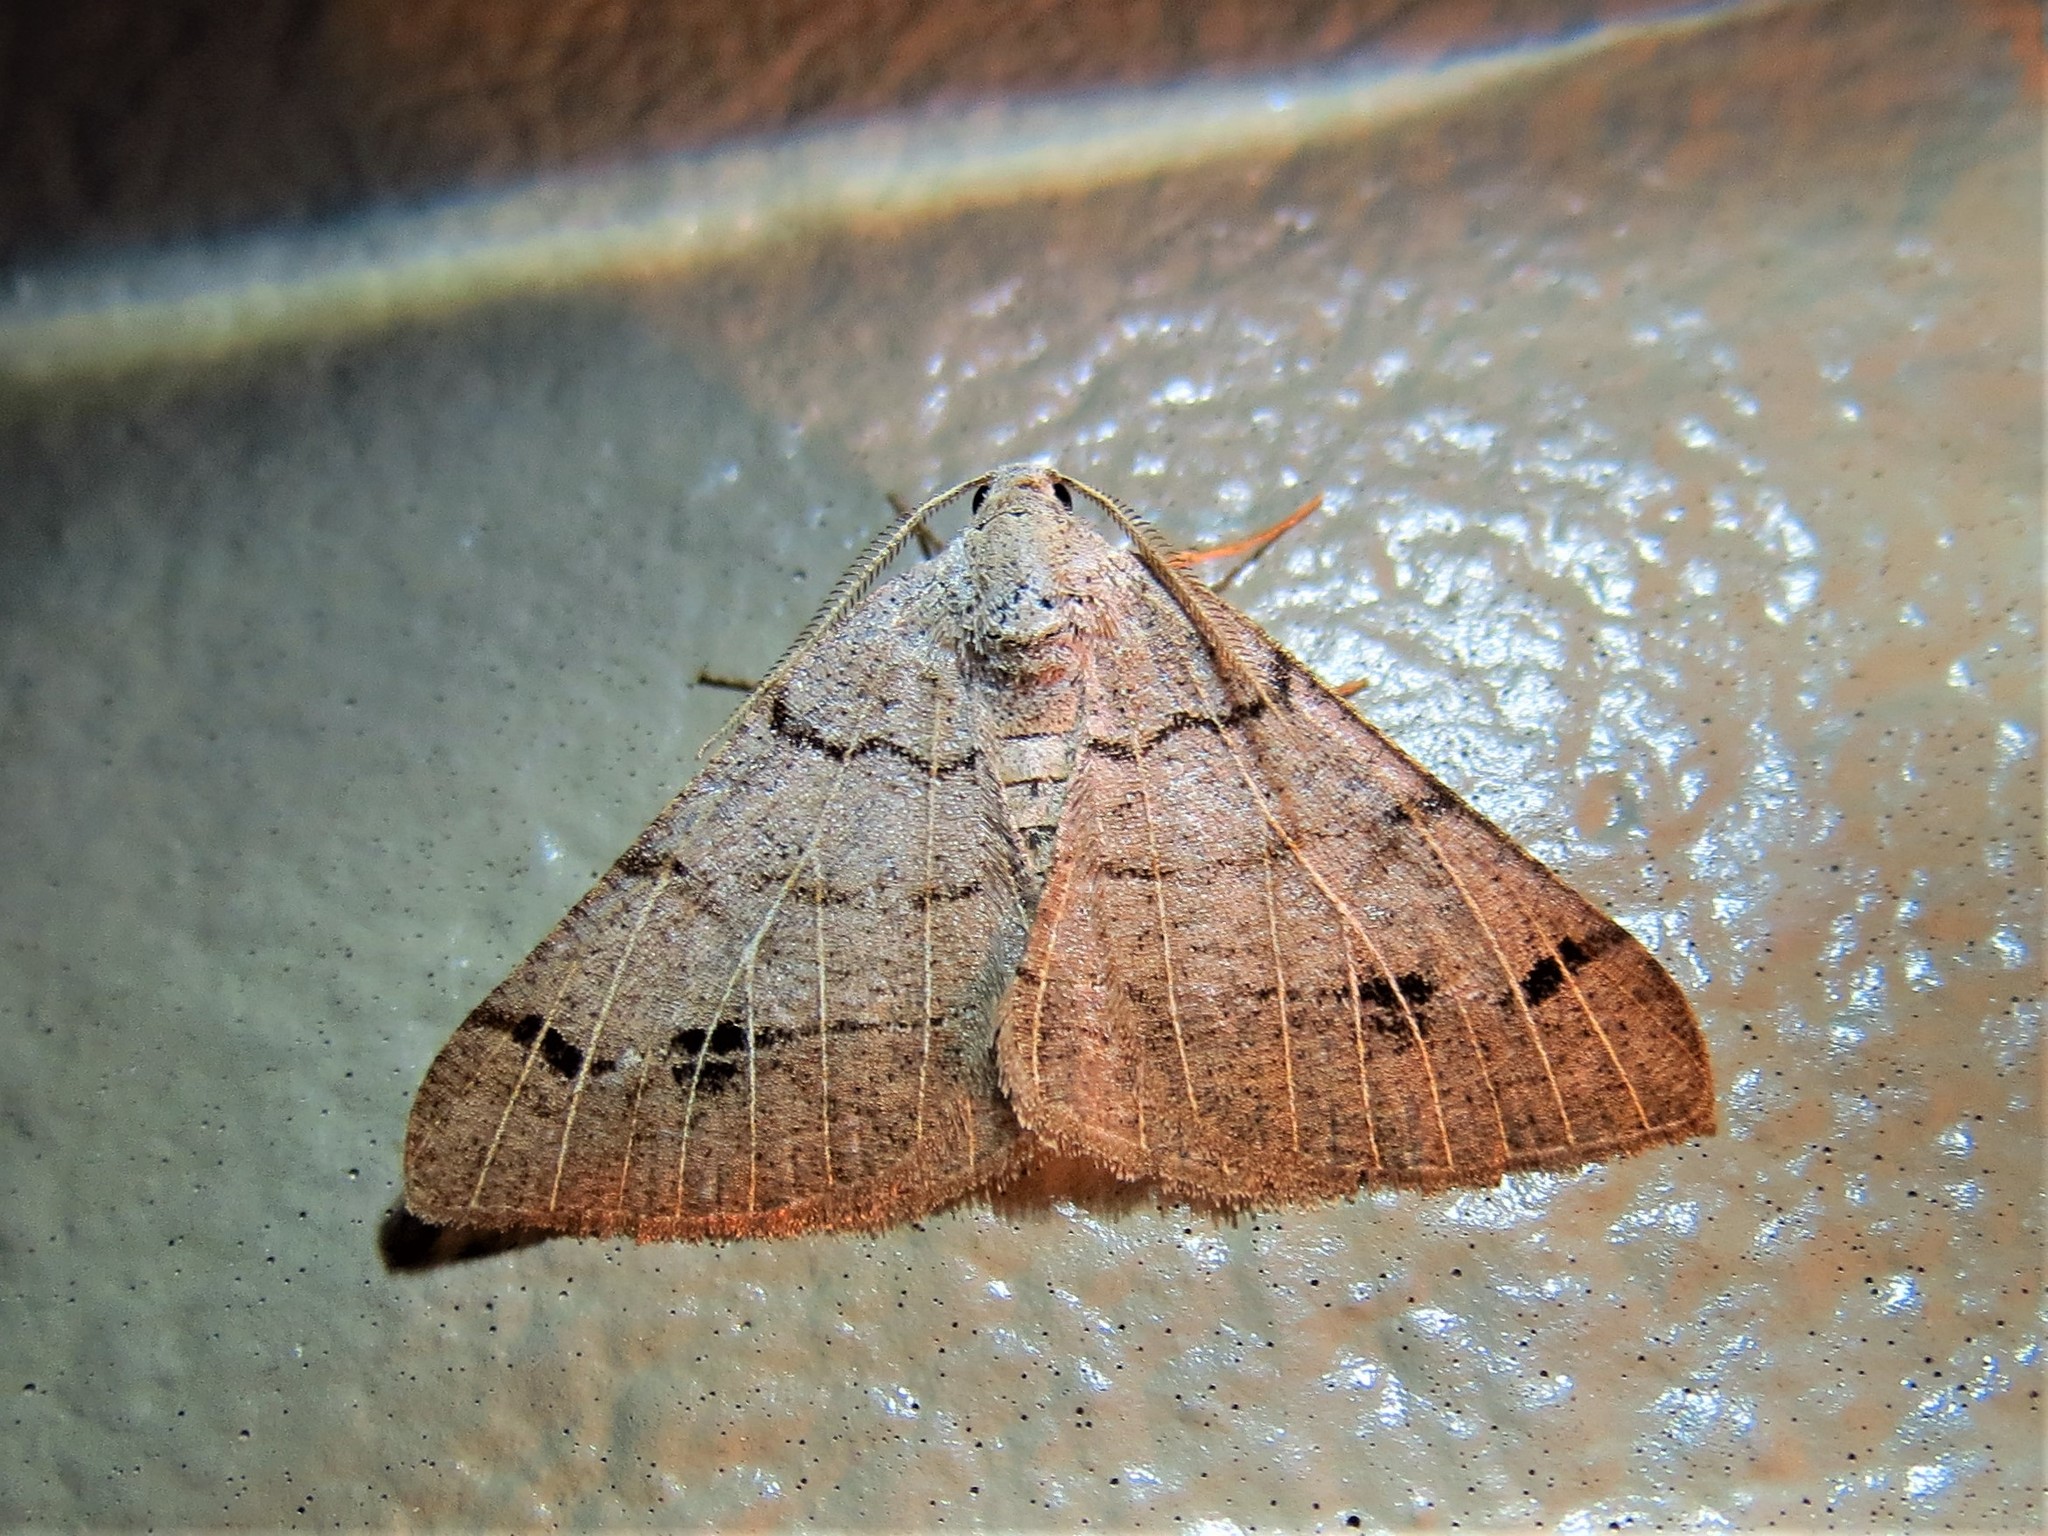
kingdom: Animalia
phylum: Arthropoda
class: Insecta
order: Lepidoptera
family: Geometridae
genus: Isturgia
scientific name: Isturgia dislocaria
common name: Pale-viened enconista
